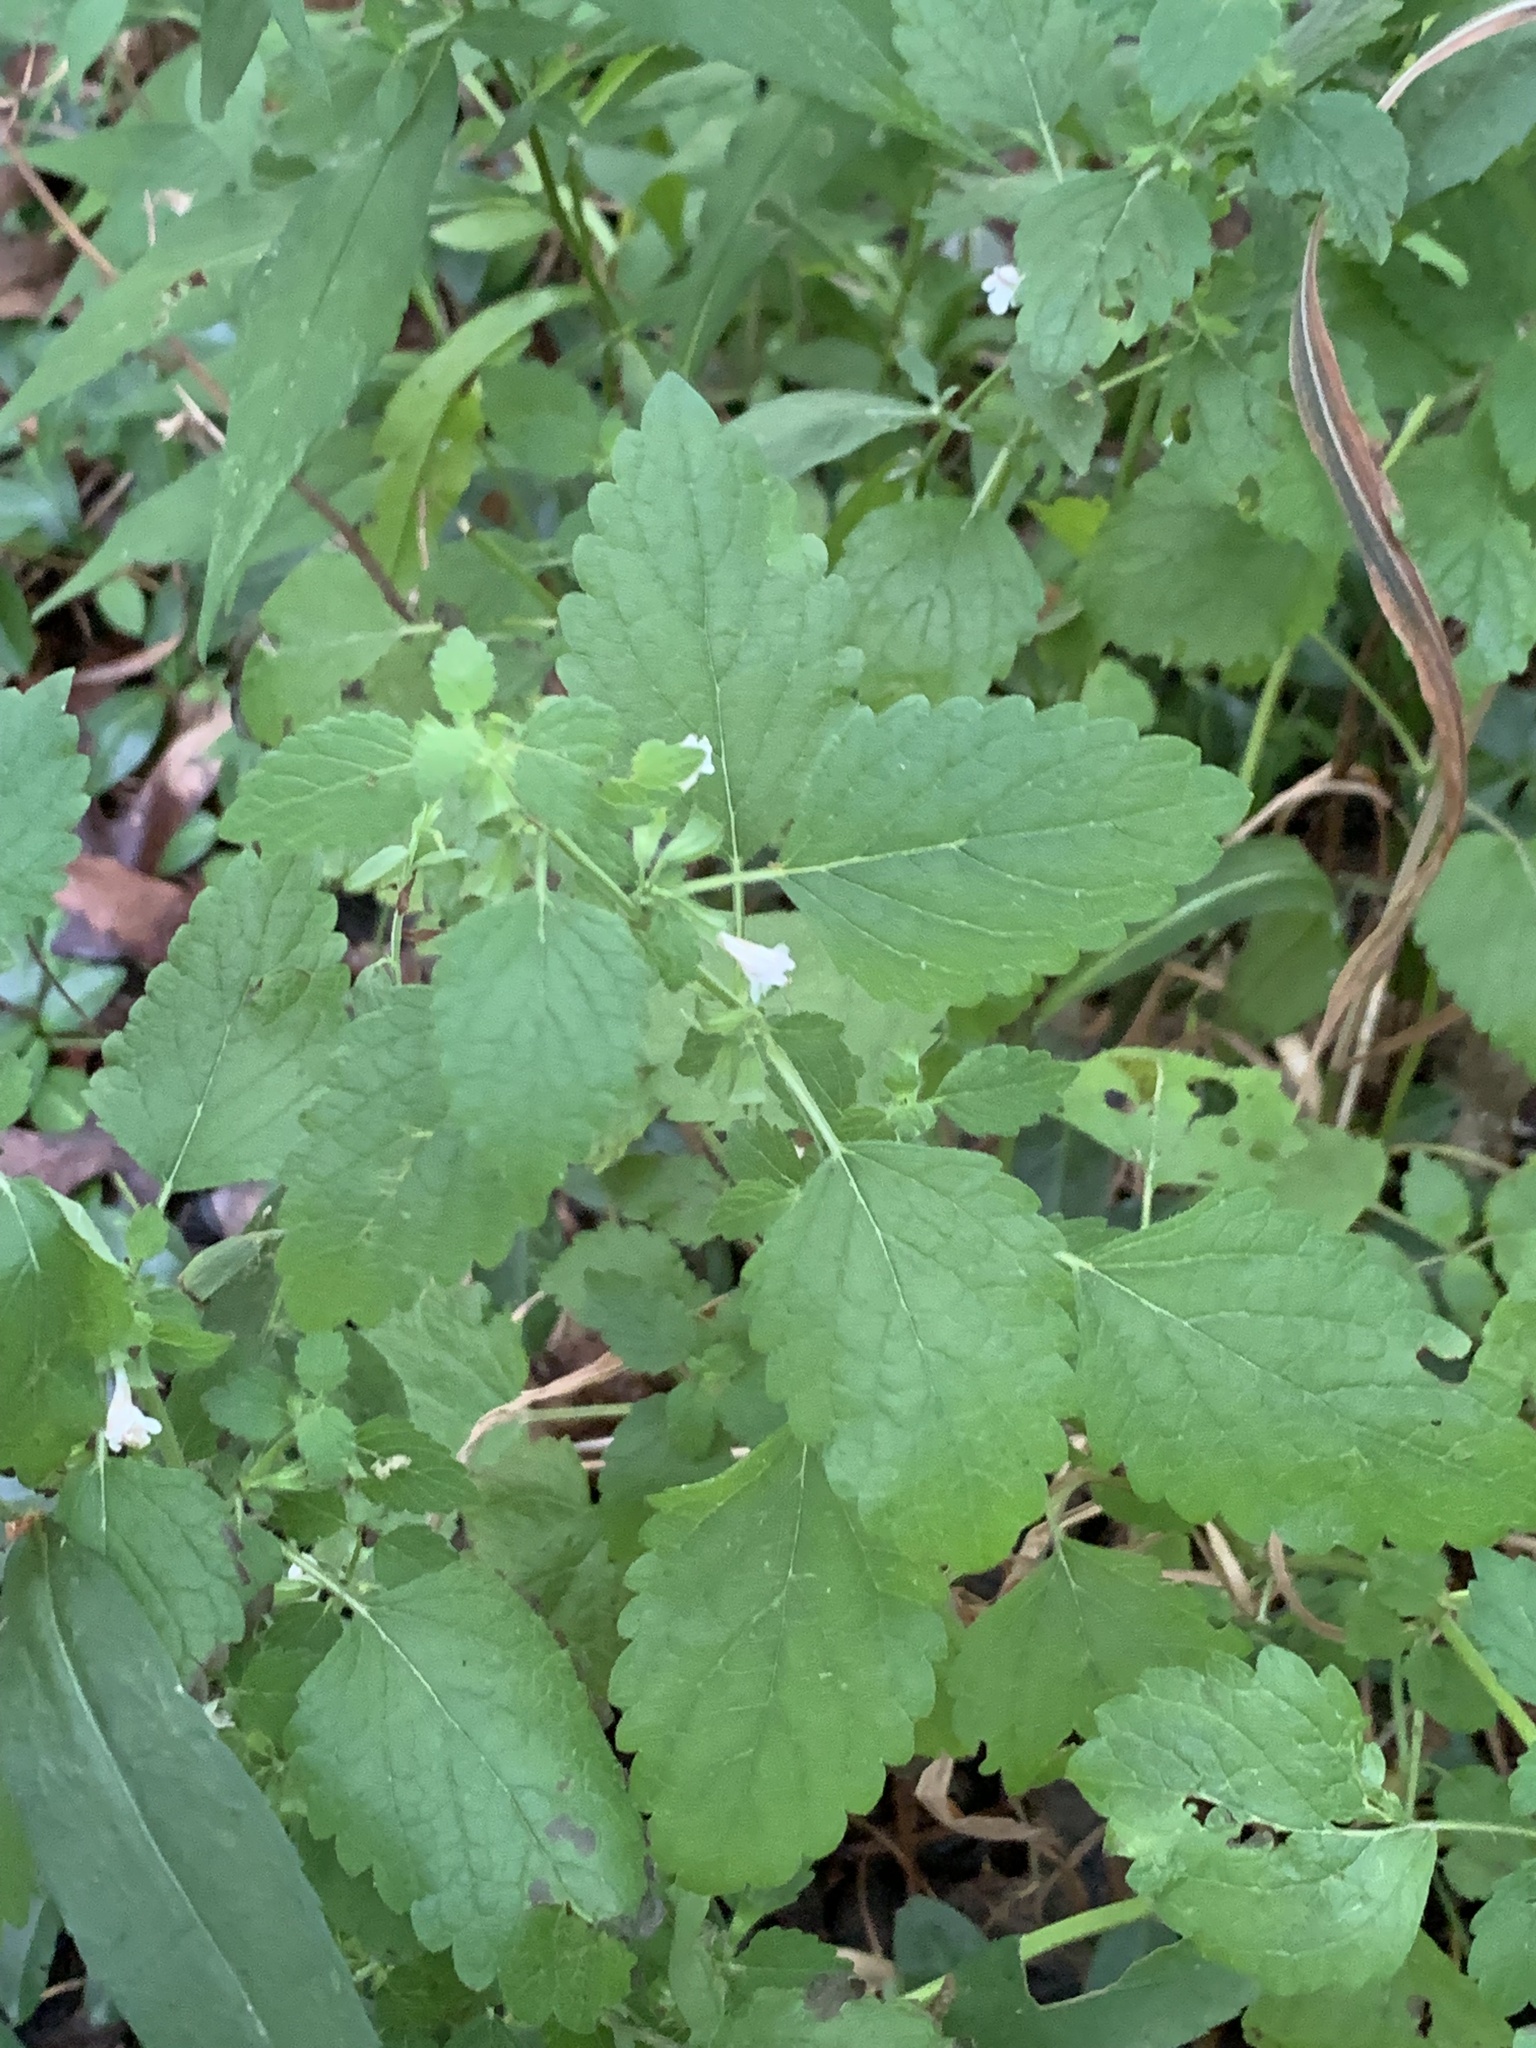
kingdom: Plantae
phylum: Tracheophyta
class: Magnoliopsida
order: Lamiales
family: Lamiaceae
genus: Melissa
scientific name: Melissa officinalis
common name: Balm
